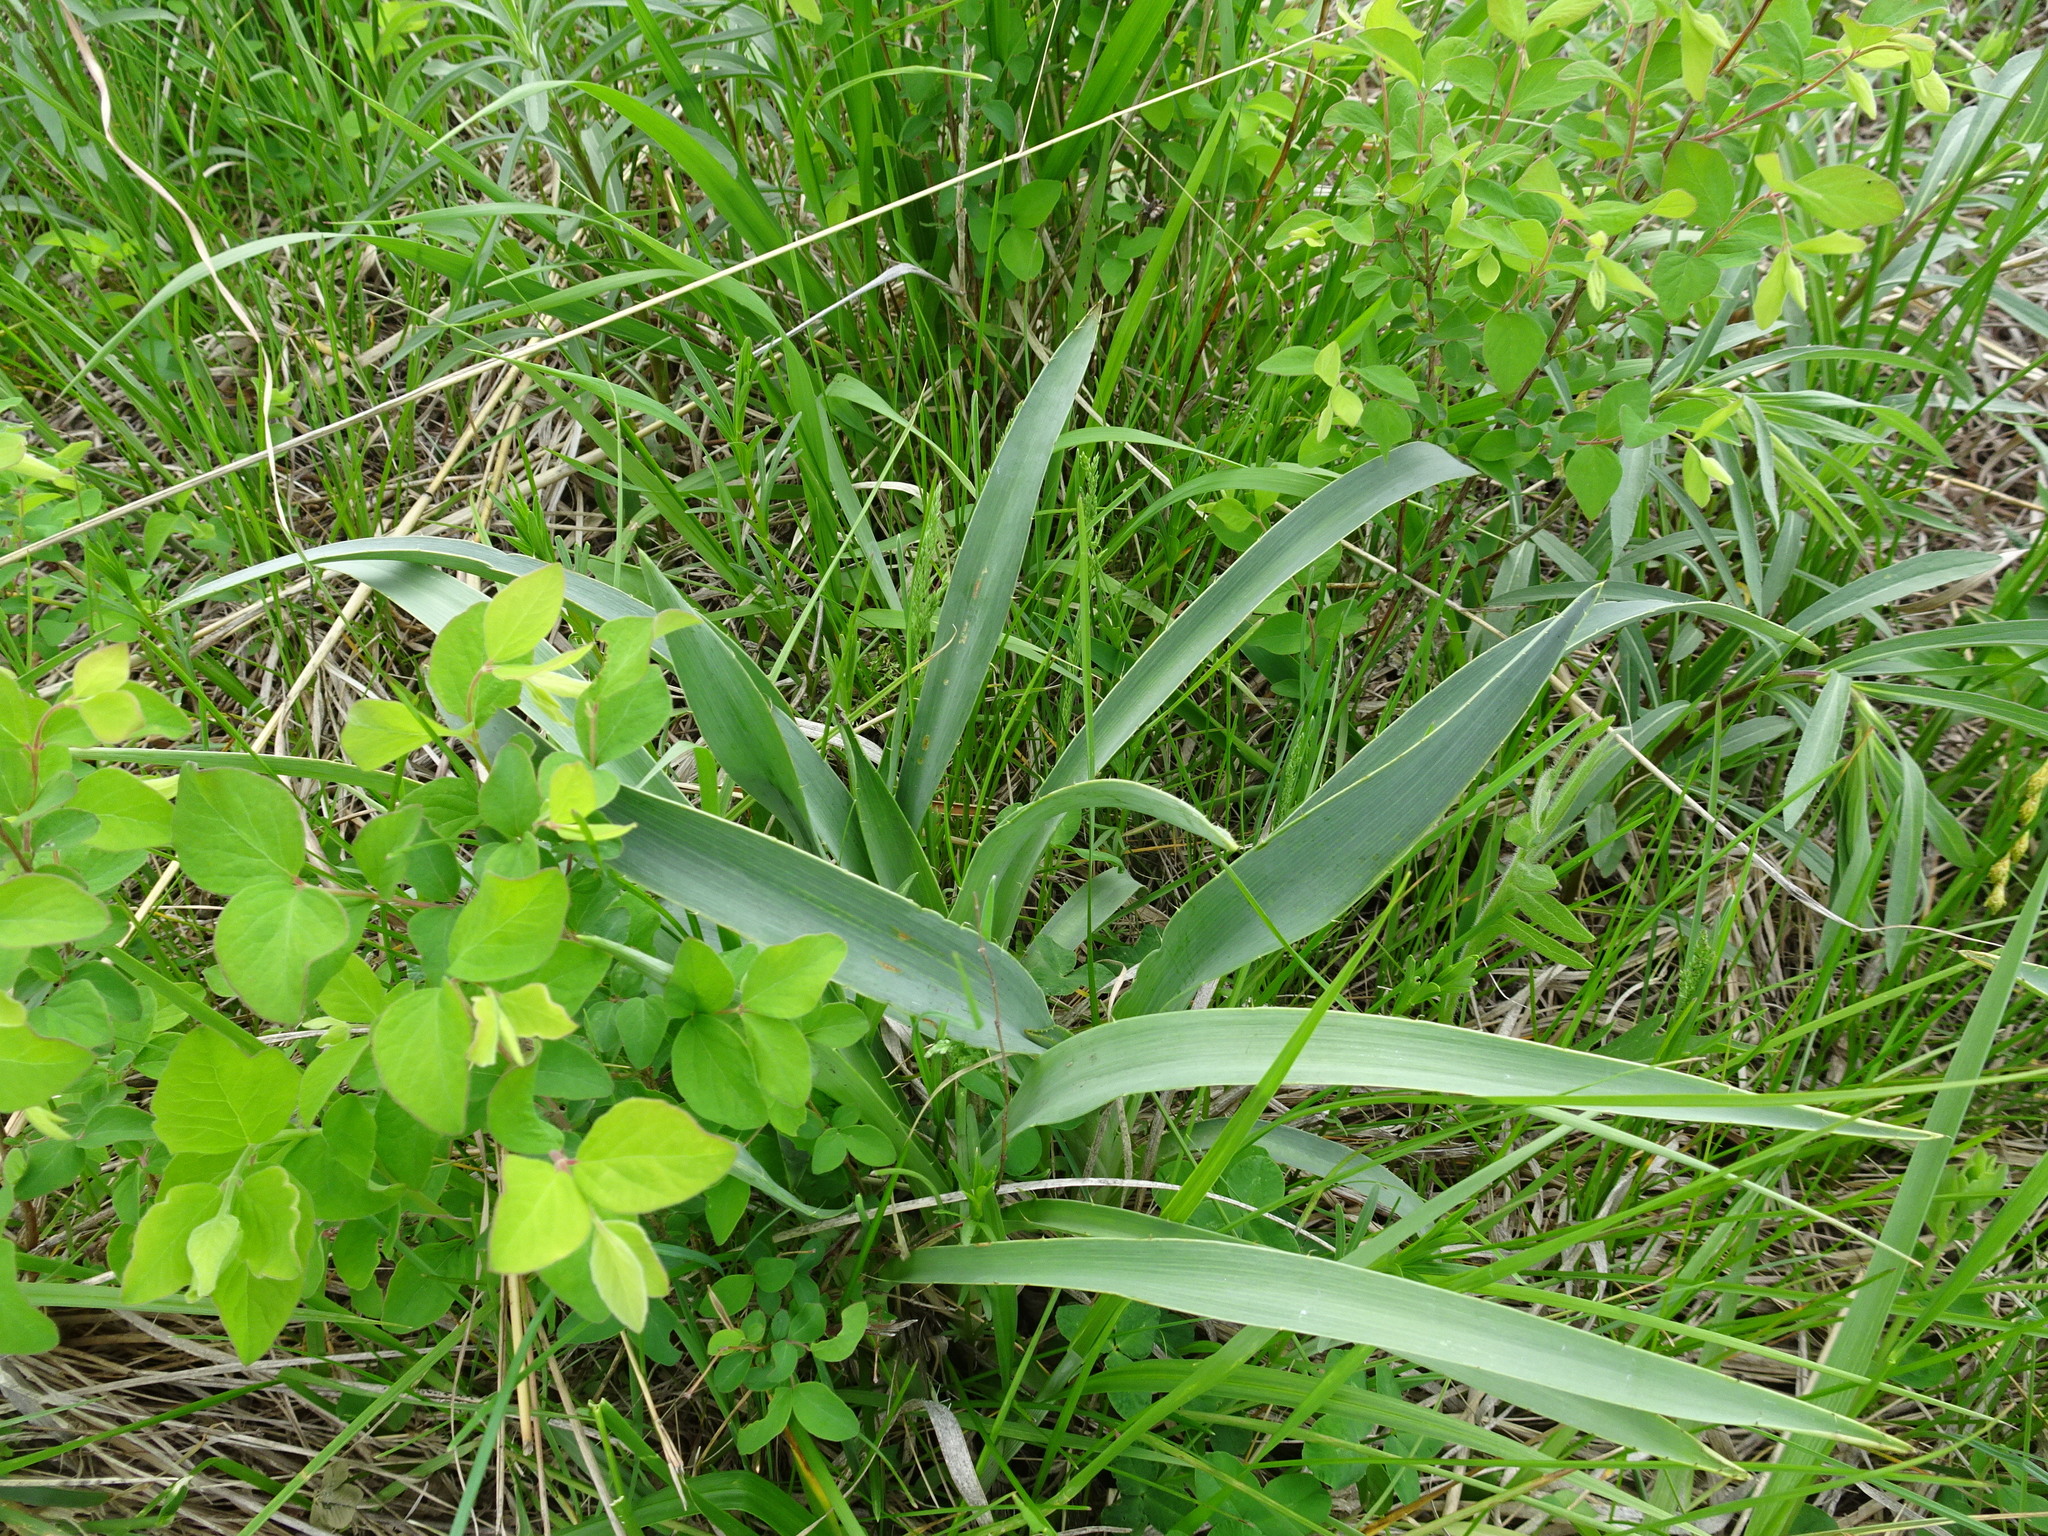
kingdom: Plantae
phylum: Tracheophyta
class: Magnoliopsida
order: Apiales
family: Apiaceae
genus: Eryngium
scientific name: Eryngium yuccifolium
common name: Button eryngo
